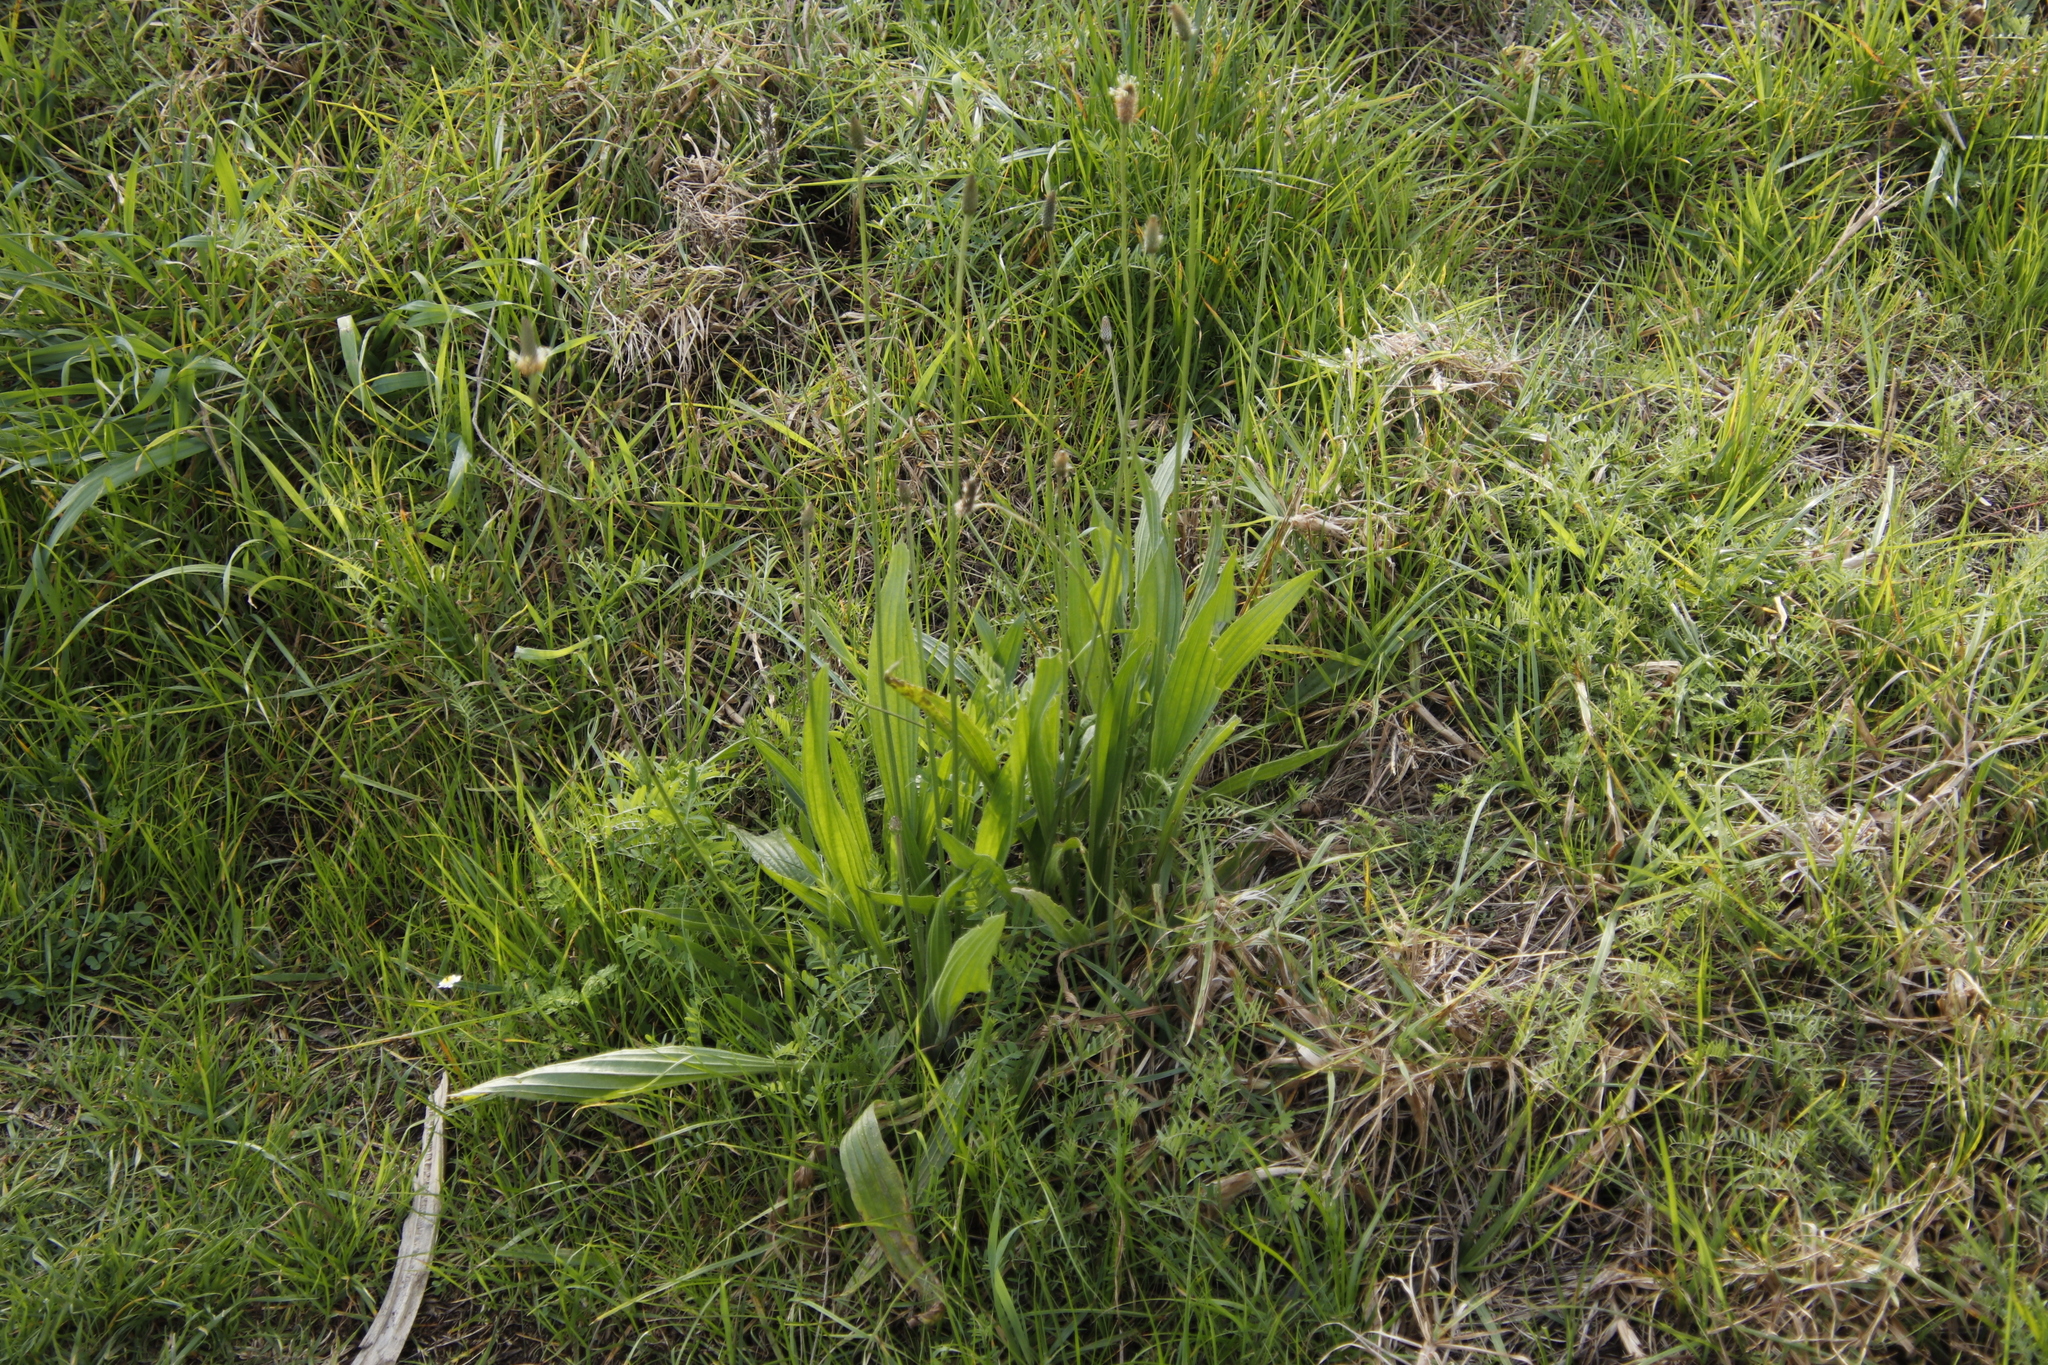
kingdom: Plantae
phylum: Tracheophyta
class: Magnoliopsida
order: Lamiales
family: Plantaginaceae
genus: Plantago
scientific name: Plantago lanceolata
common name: Ribwort plantain
